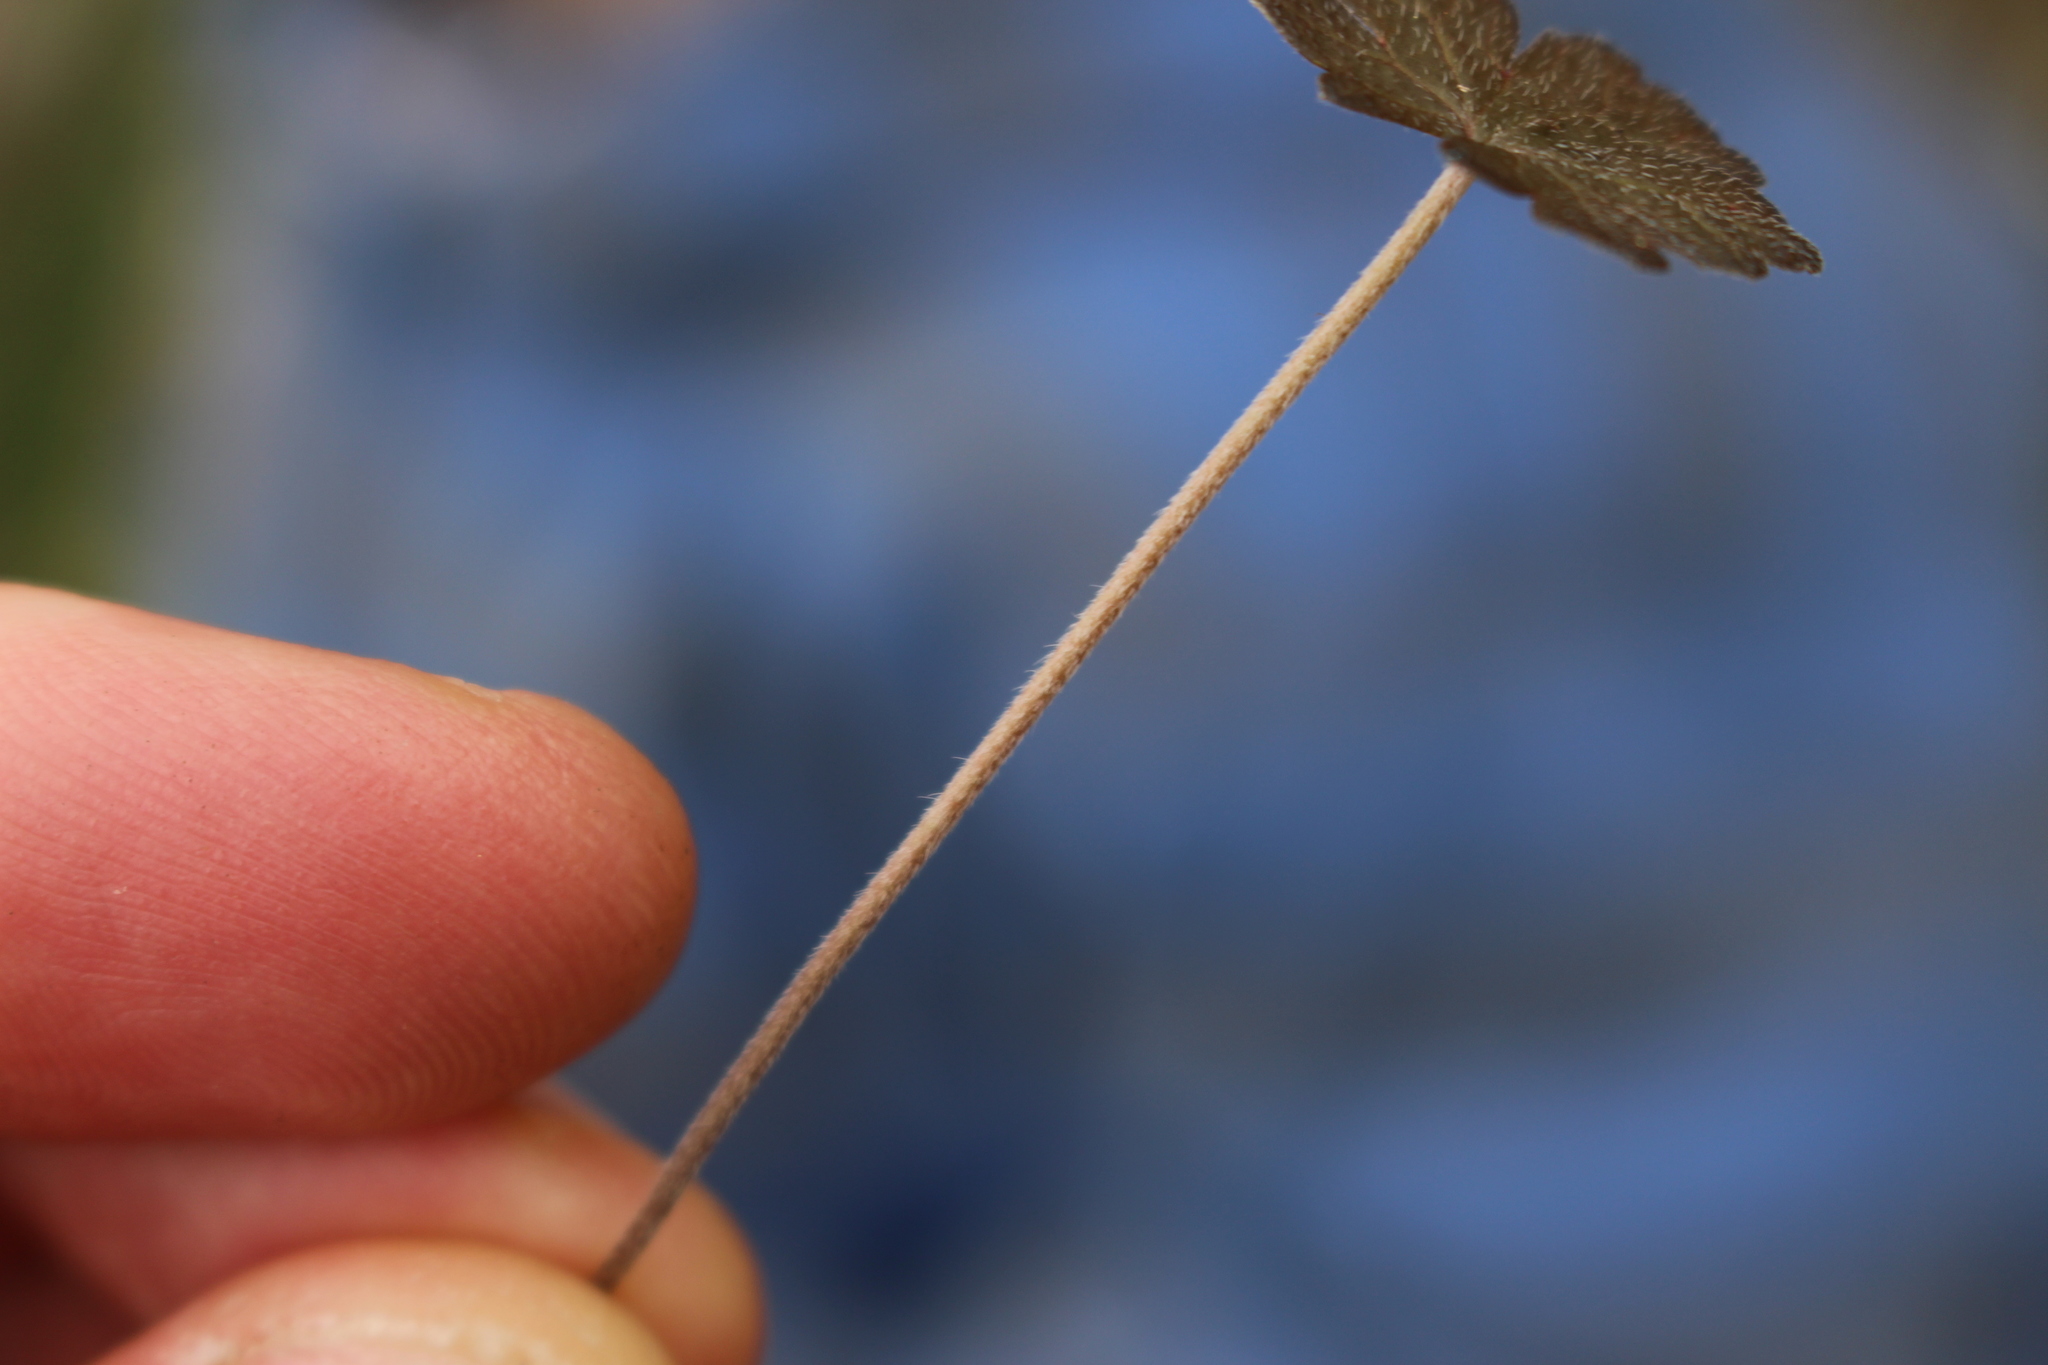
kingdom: Plantae
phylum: Tracheophyta
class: Magnoliopsida
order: Geraniales
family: Geraniaceae
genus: Geranium
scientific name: Geranium brevicaule
